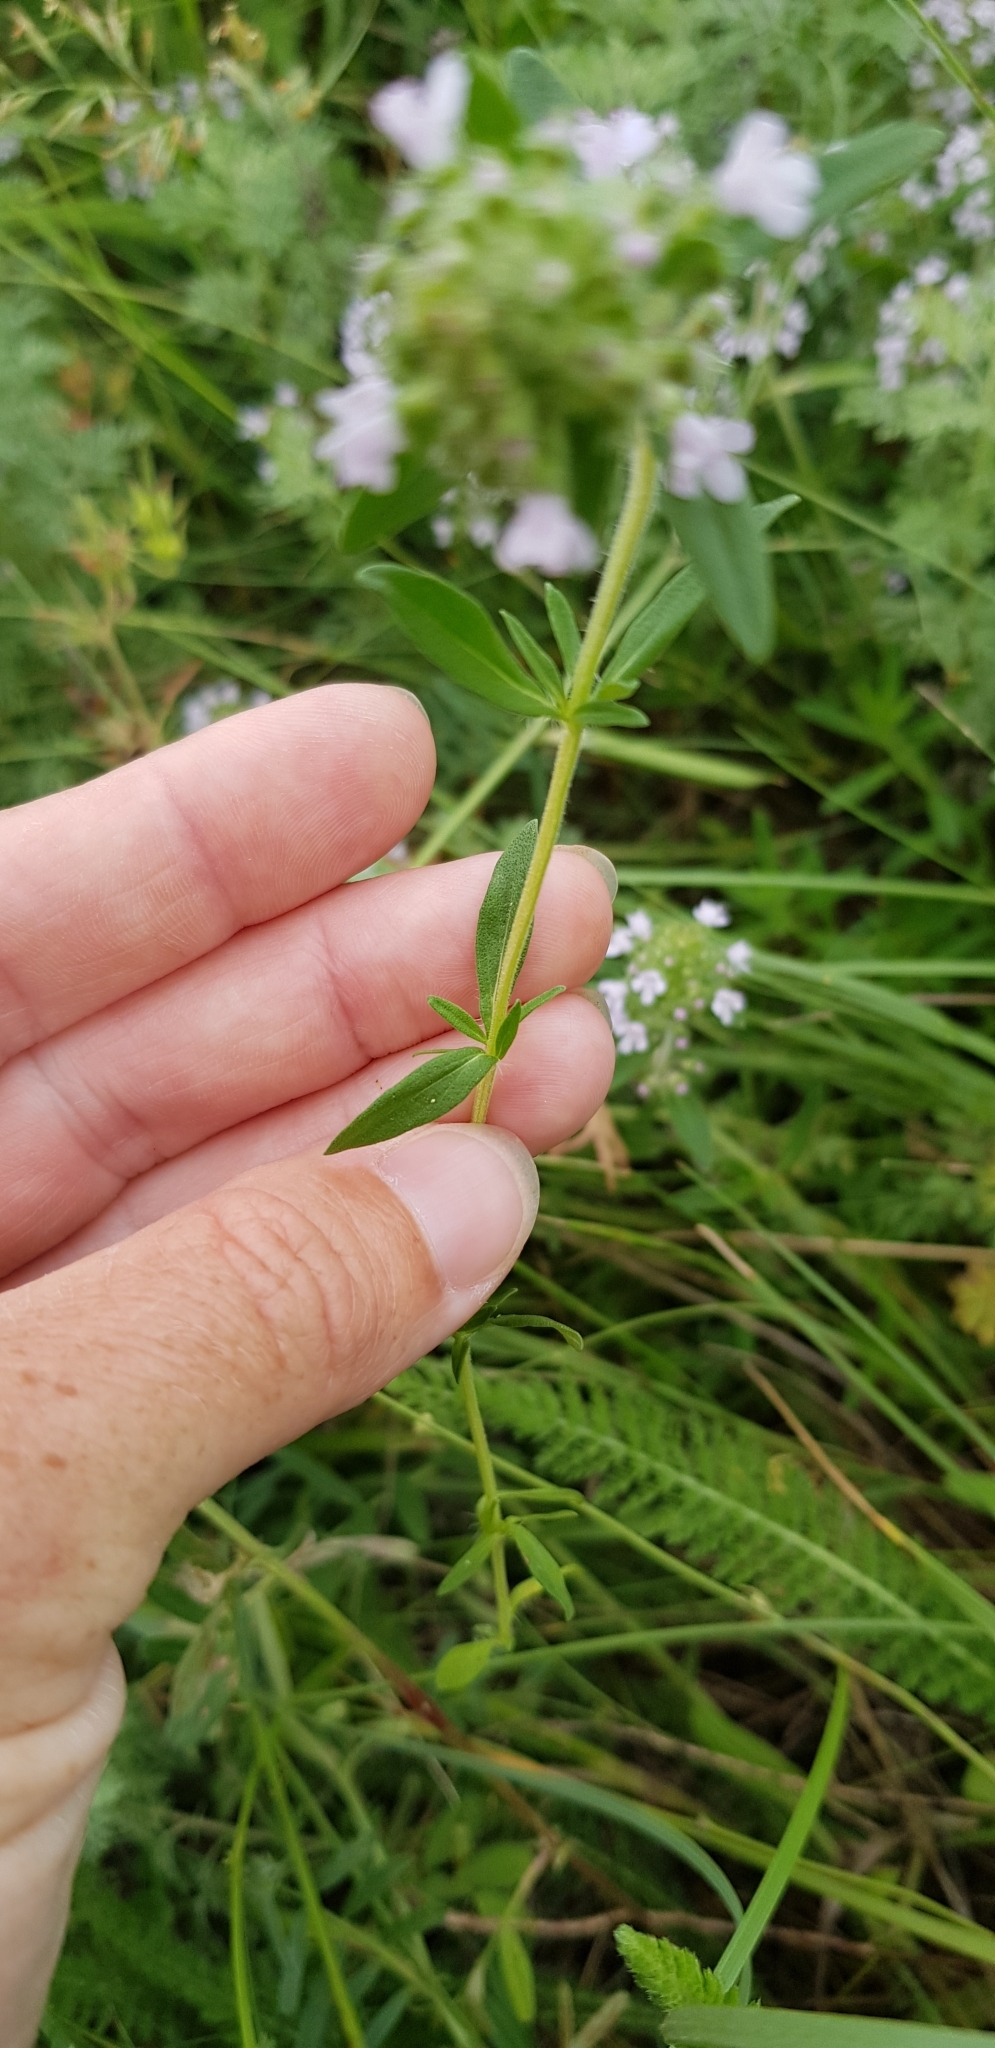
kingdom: Plantae
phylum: Tracheophyta
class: Magnoliopsida
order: Lamiales
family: Lamiaceae
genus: Thymus
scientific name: Thymus pannonicus
